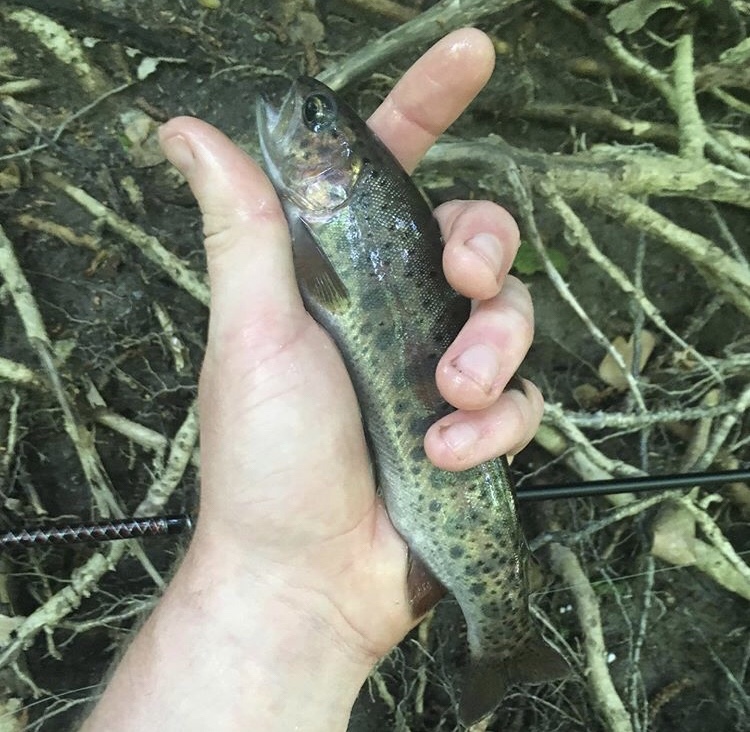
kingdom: Animalia
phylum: Chordata
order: Salmoniformes
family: Salmonidae
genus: Oncorhynchus
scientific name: Oncorhynchus mykiss
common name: Rainbow trout
